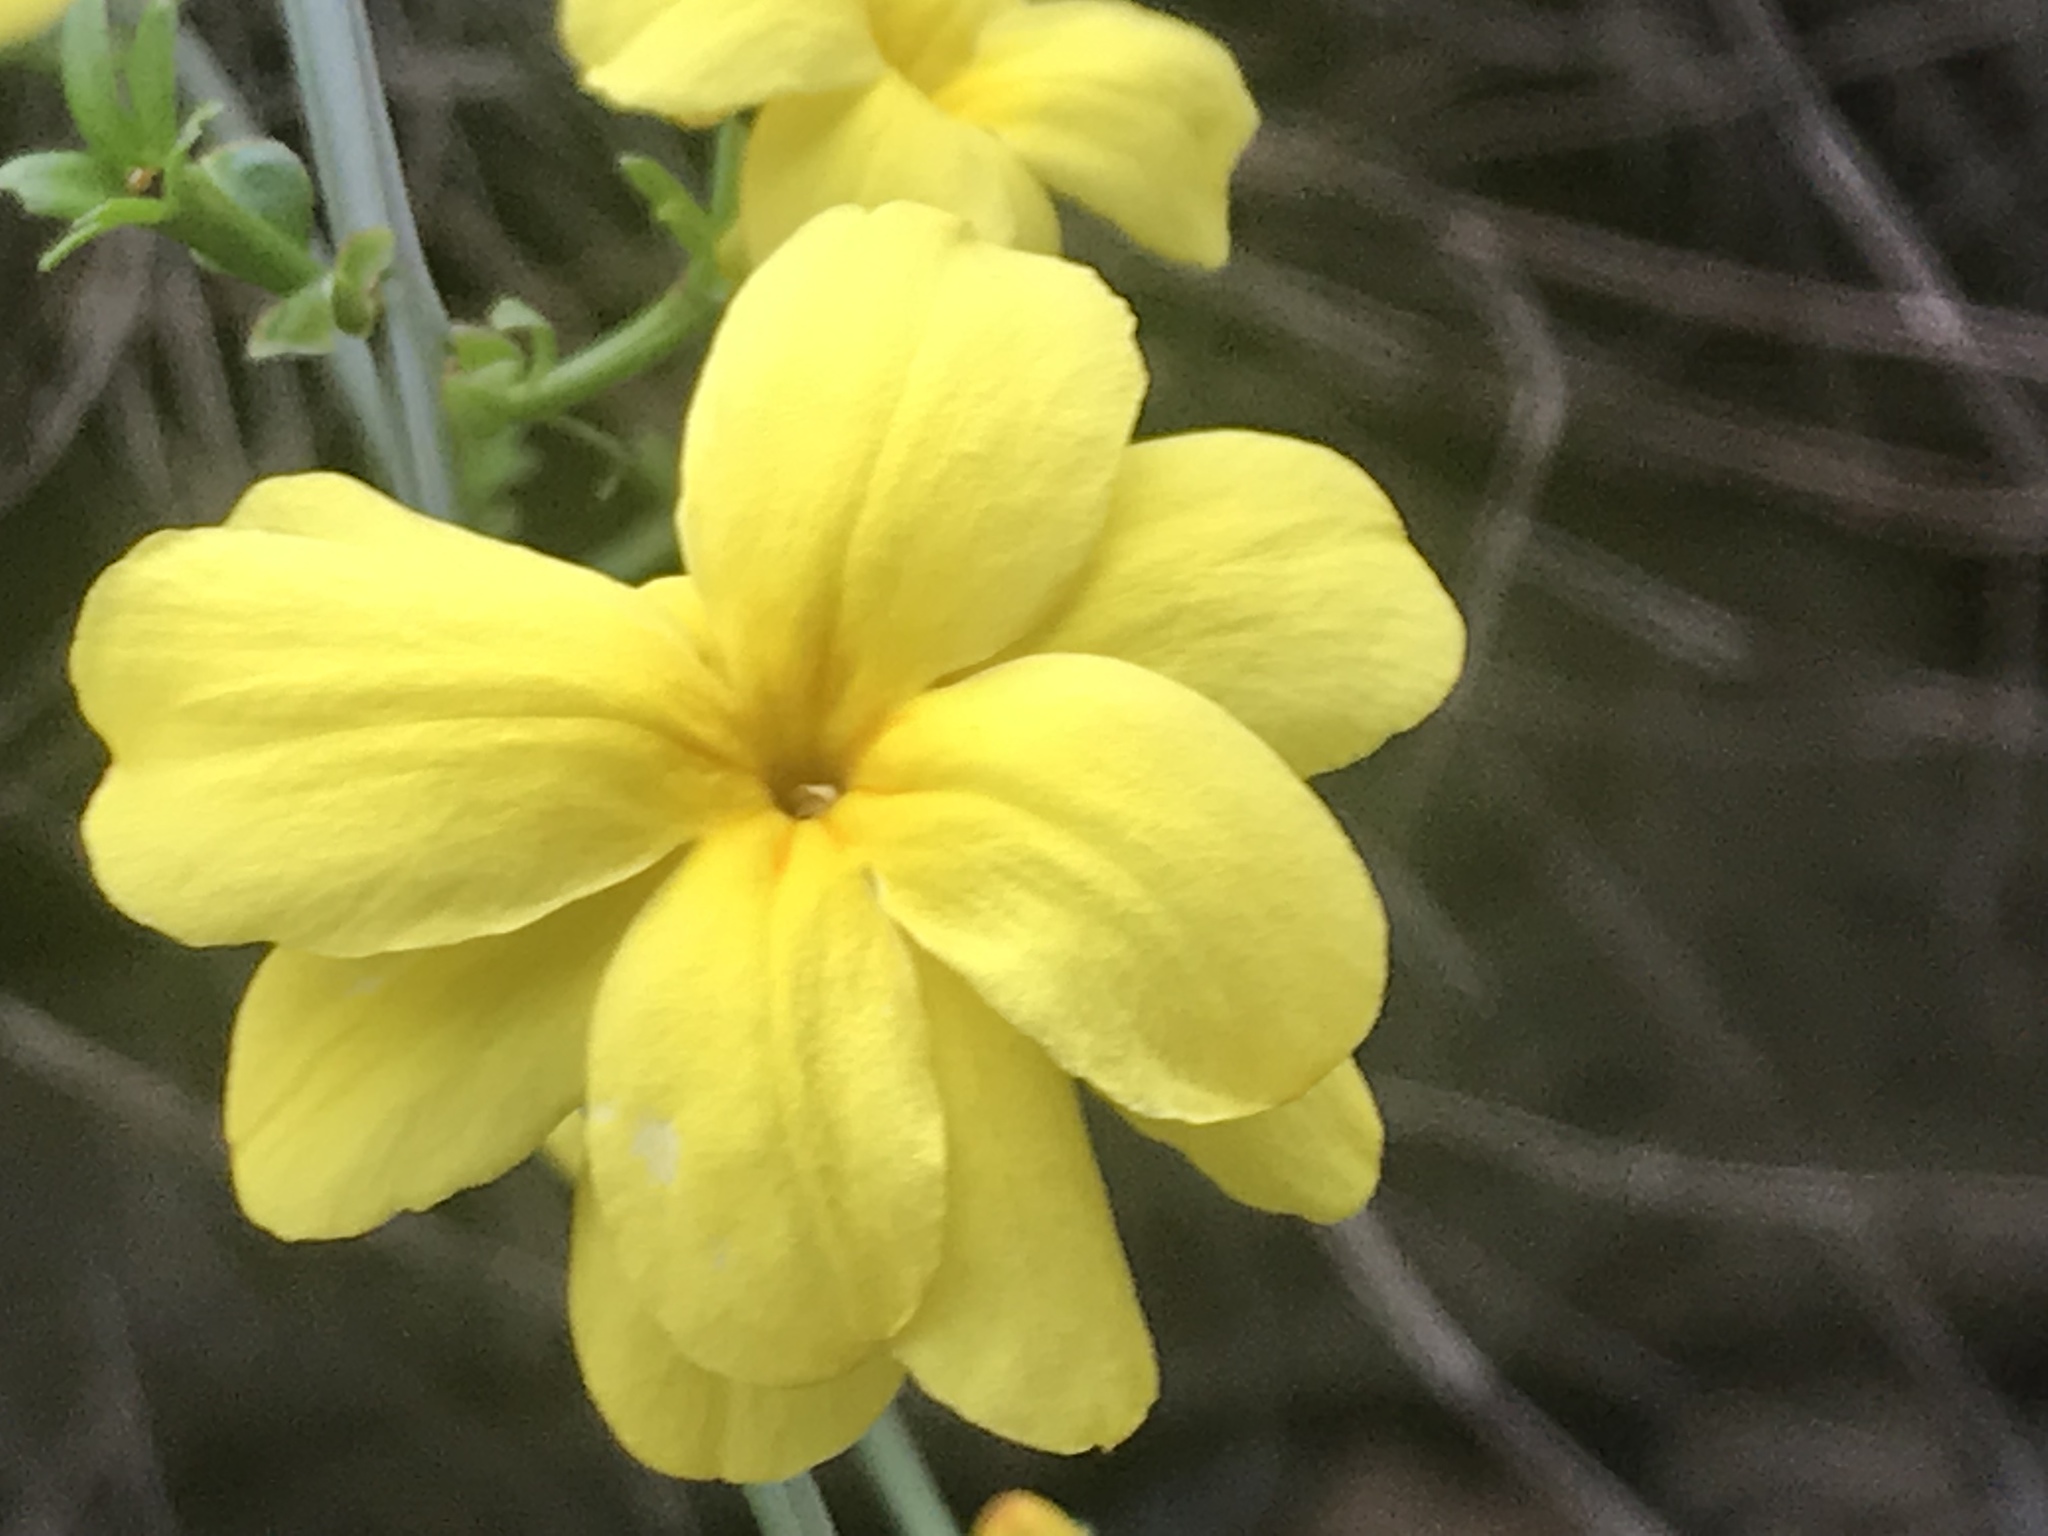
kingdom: Plantae
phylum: Tracheophyta
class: Magnoliopsida
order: Lamiales
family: Oleaceae
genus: Jasminum
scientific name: Jasminum mesnyi
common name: Japanese jasmine
